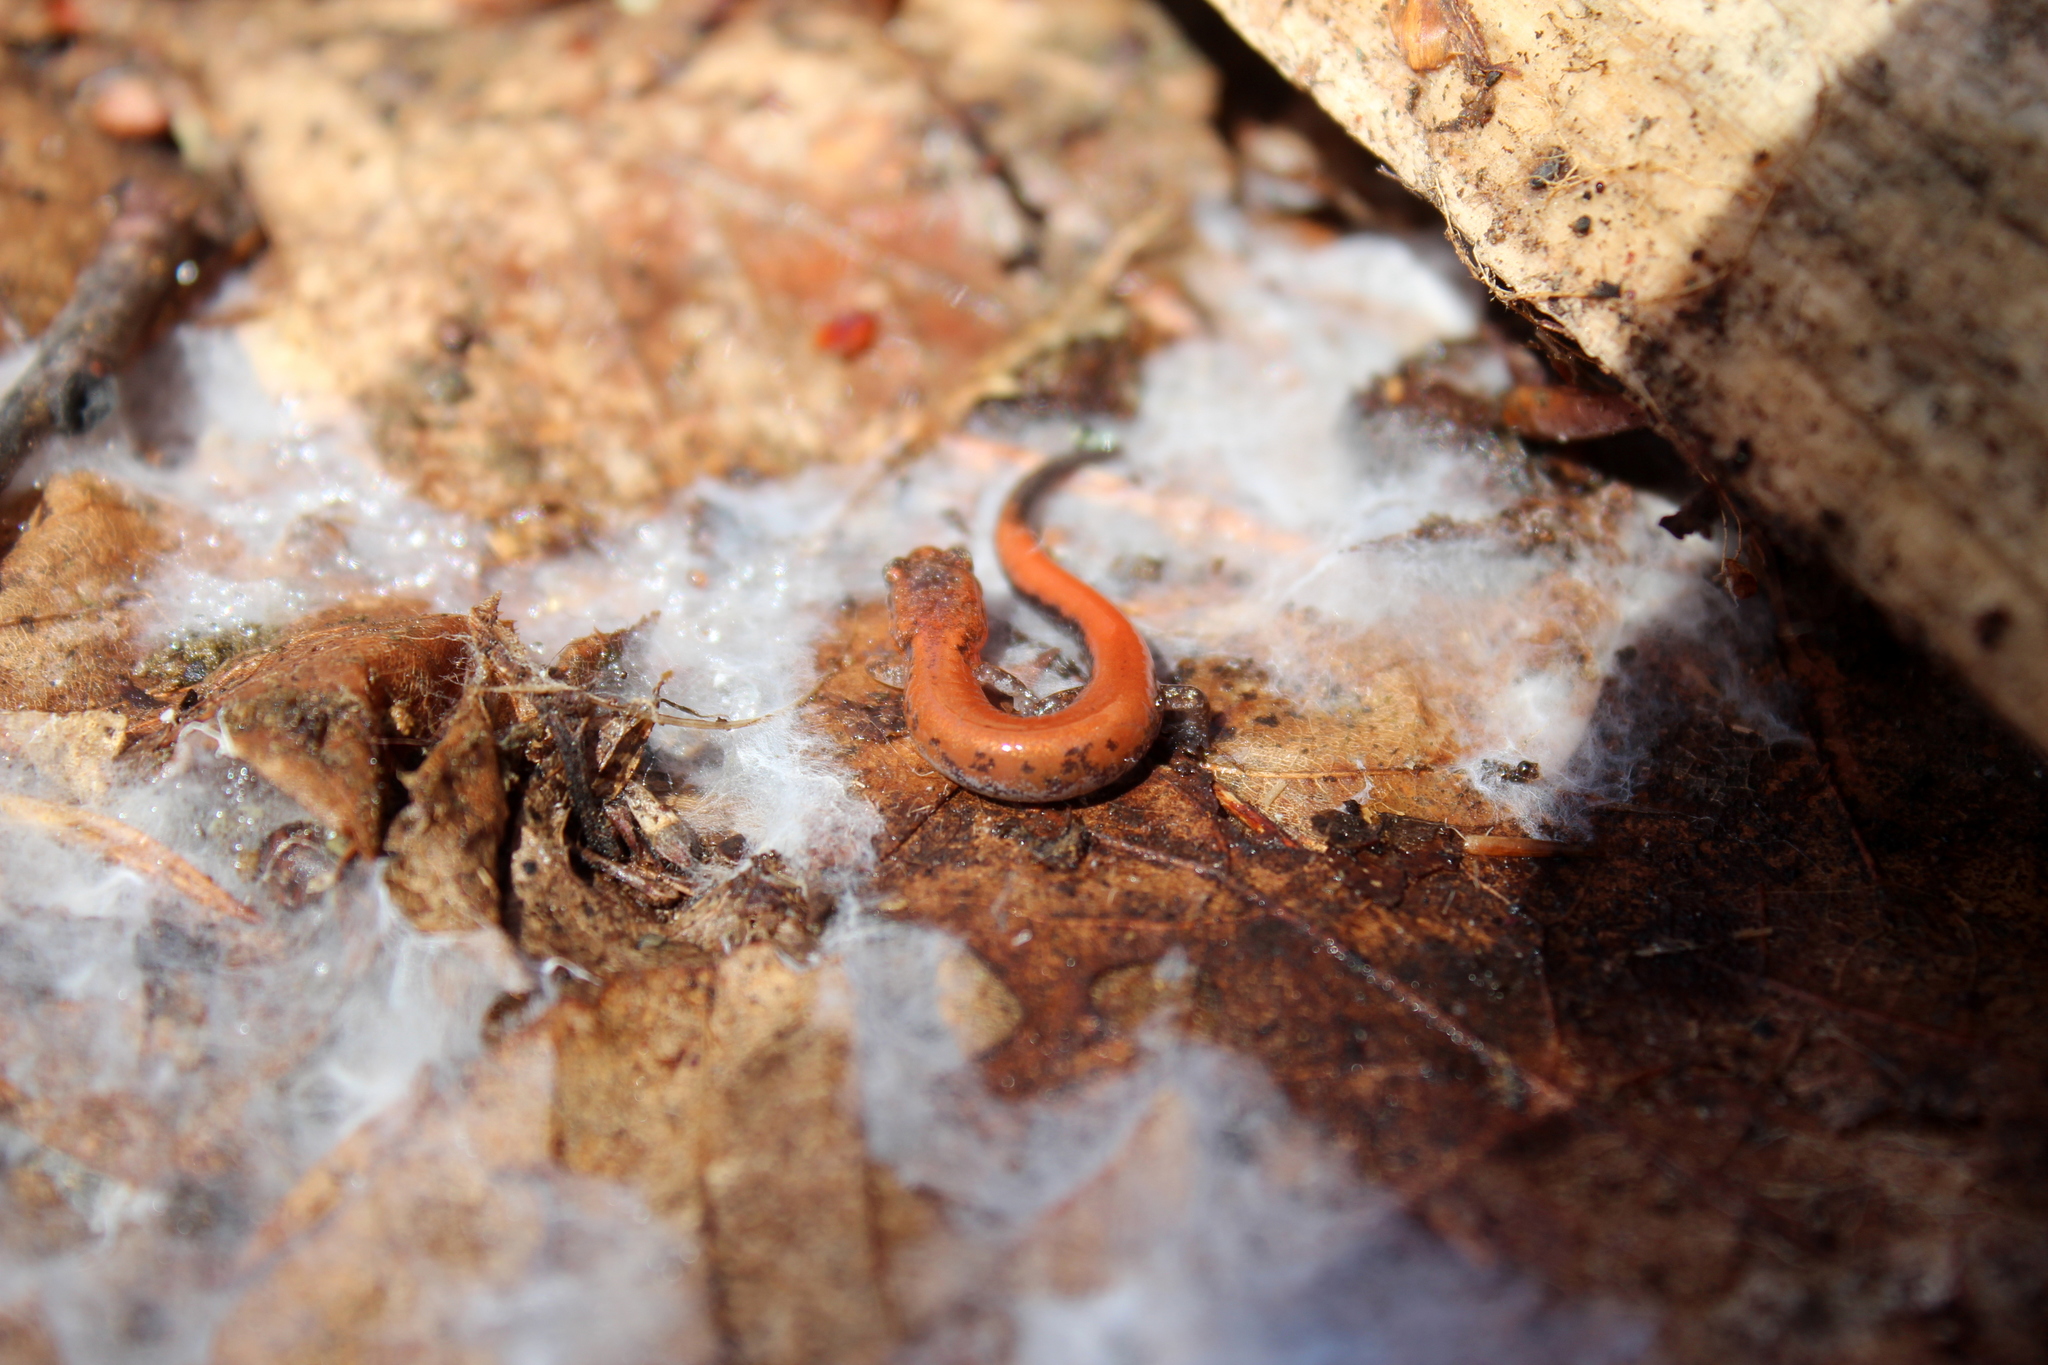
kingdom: Animalia
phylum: Chordata
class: Amphibia
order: Caudata
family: Plethodontidae
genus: Plethodon
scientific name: Plethodon cinereus
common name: Redback salamander
